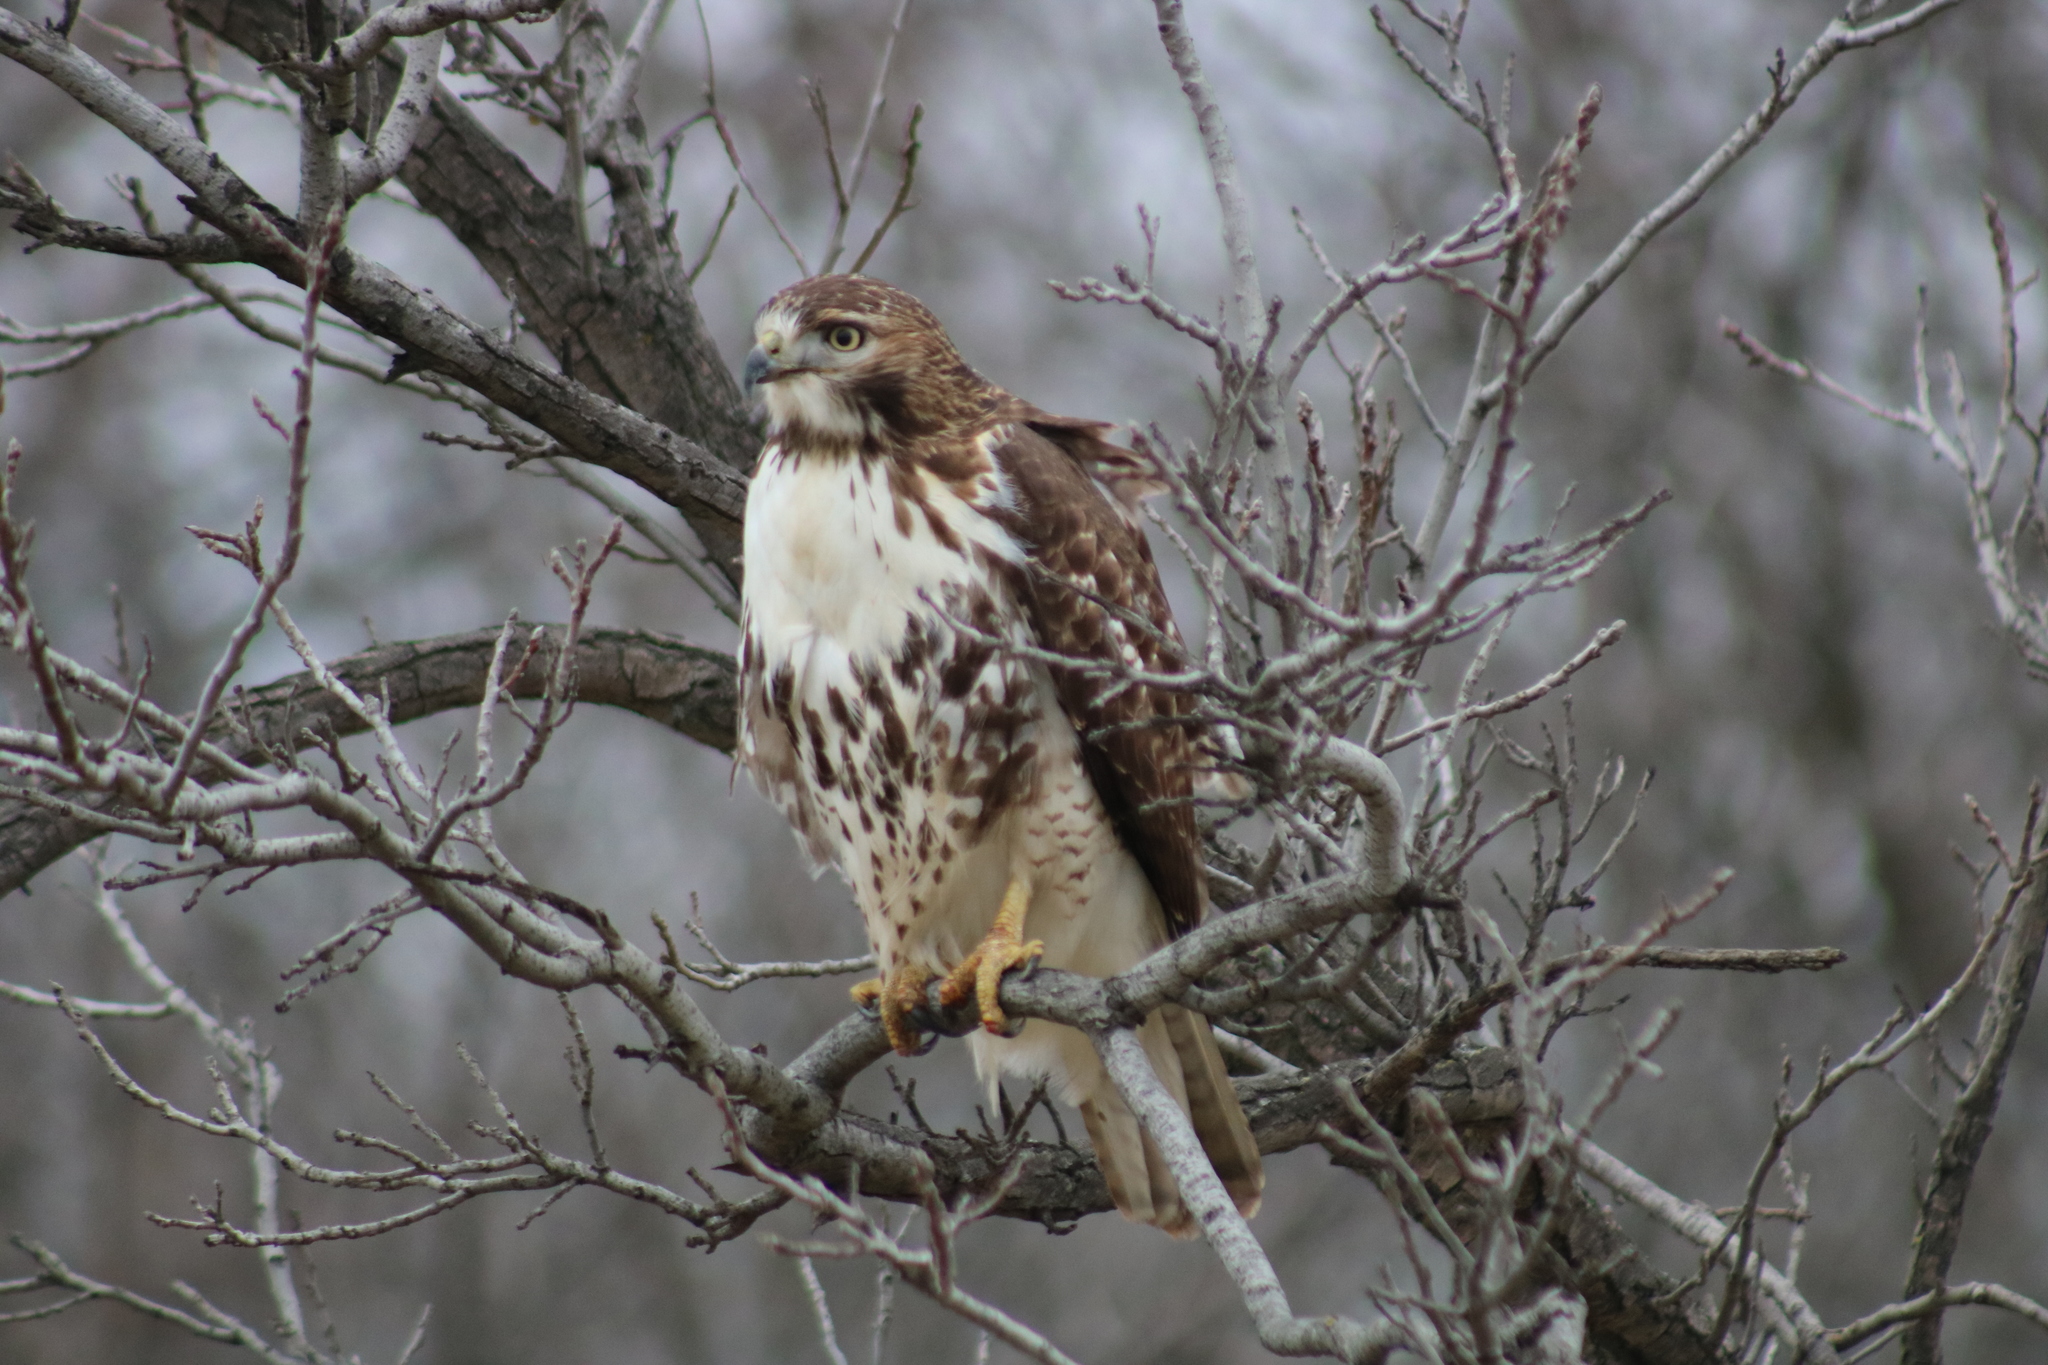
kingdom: Animalia
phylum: Chordata
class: Aves
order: Accipitriformes
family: Accipitridae
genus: Buteo
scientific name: Buteo jamaicensis
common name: Red-tailed hawk
